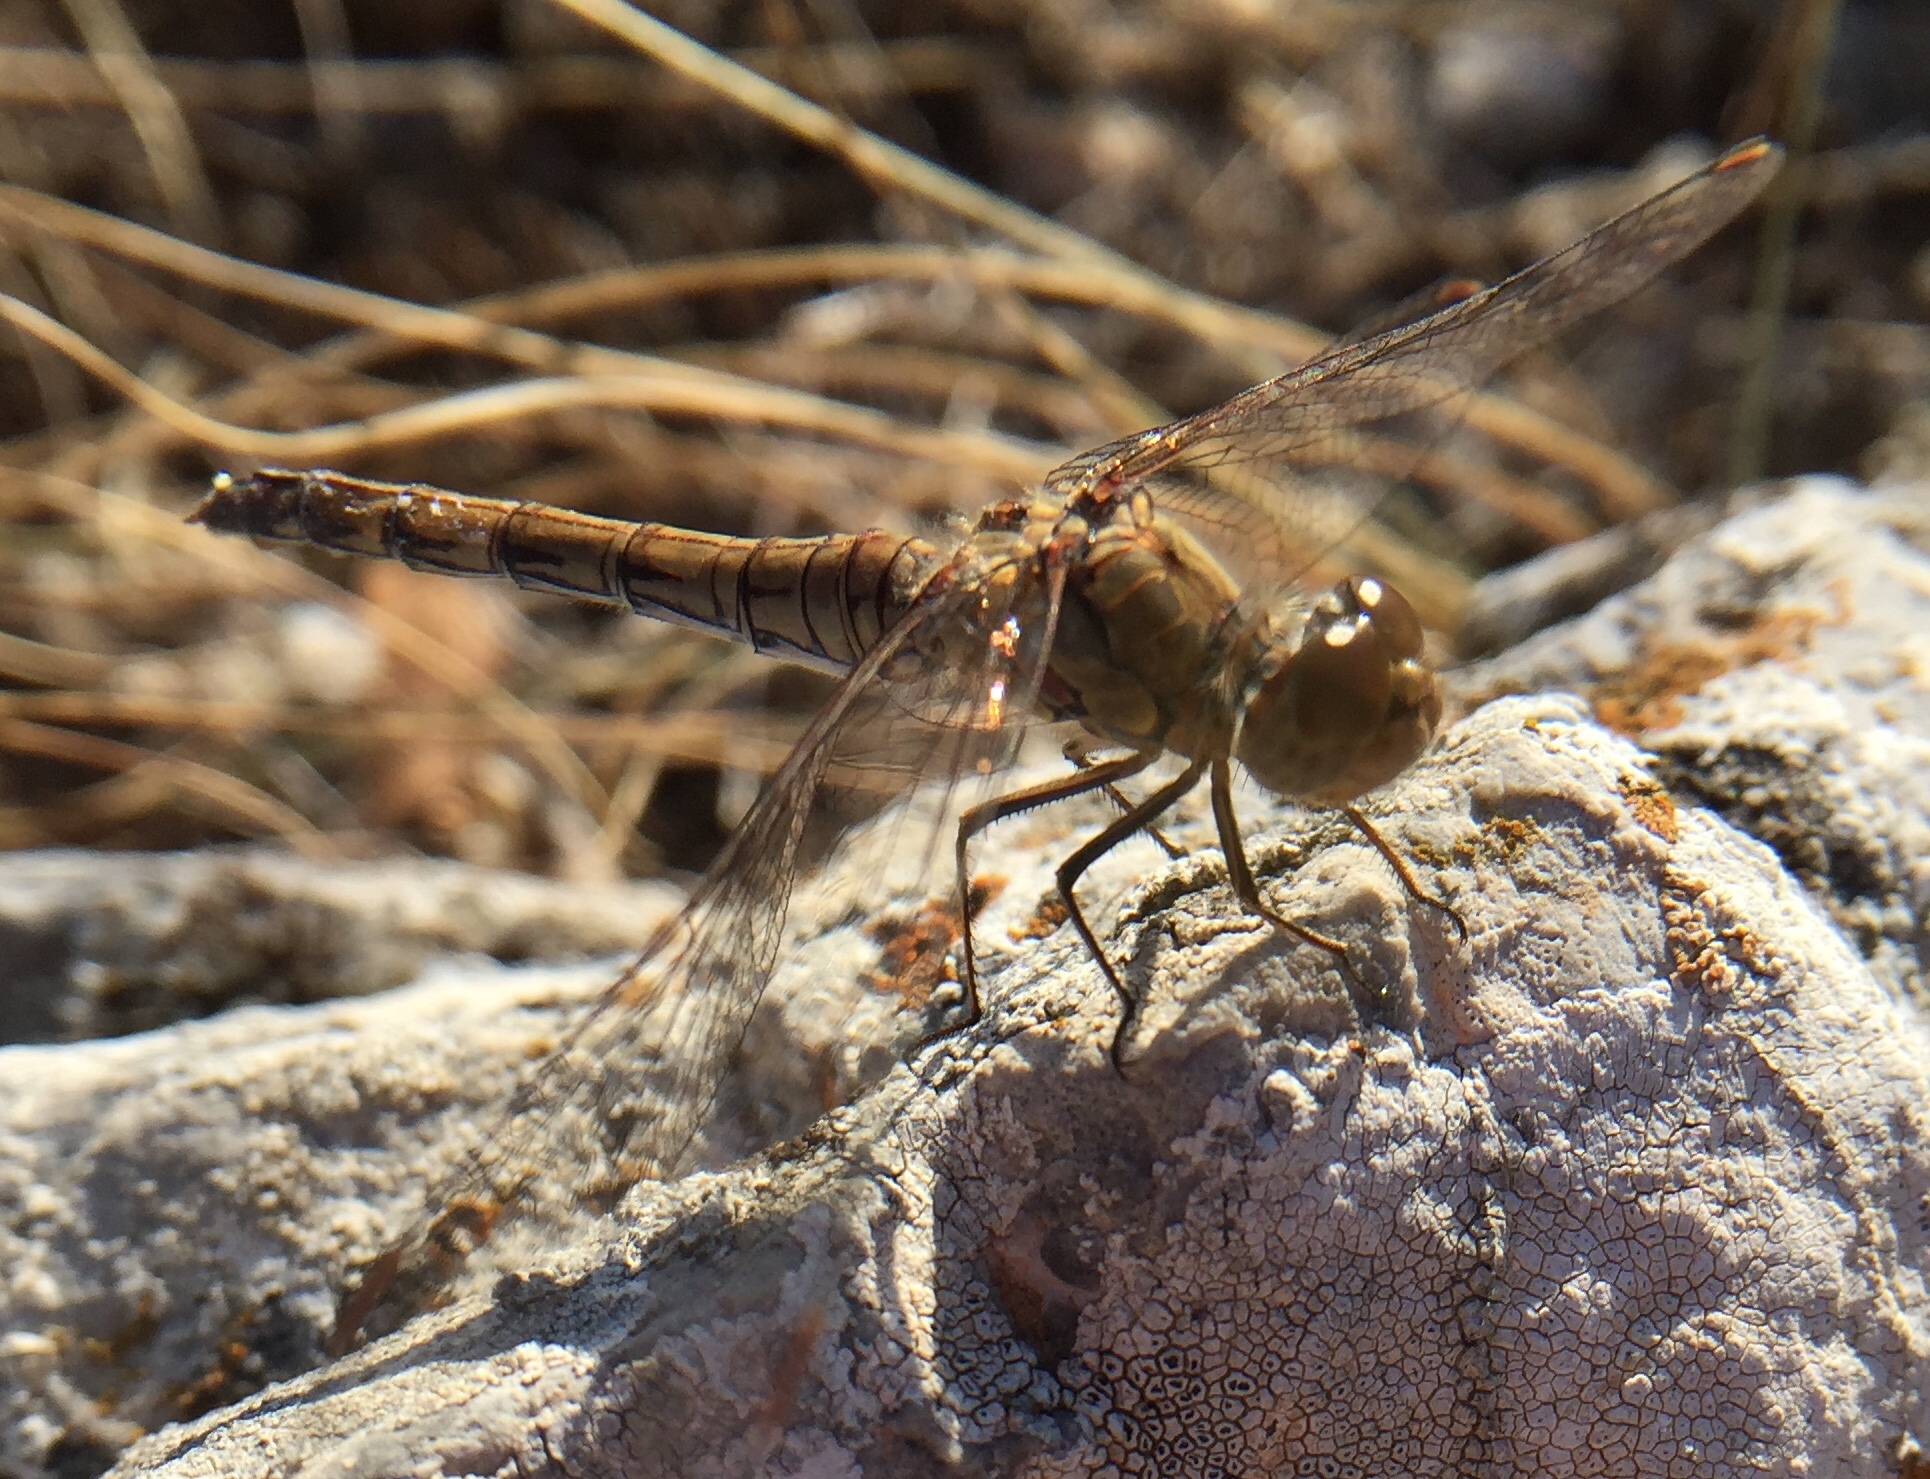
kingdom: Animalia
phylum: Arthropoda
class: Insecta
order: Odonata
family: Libellulidae
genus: Sympetrum
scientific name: Sympetrum striolatum
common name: Common darter
